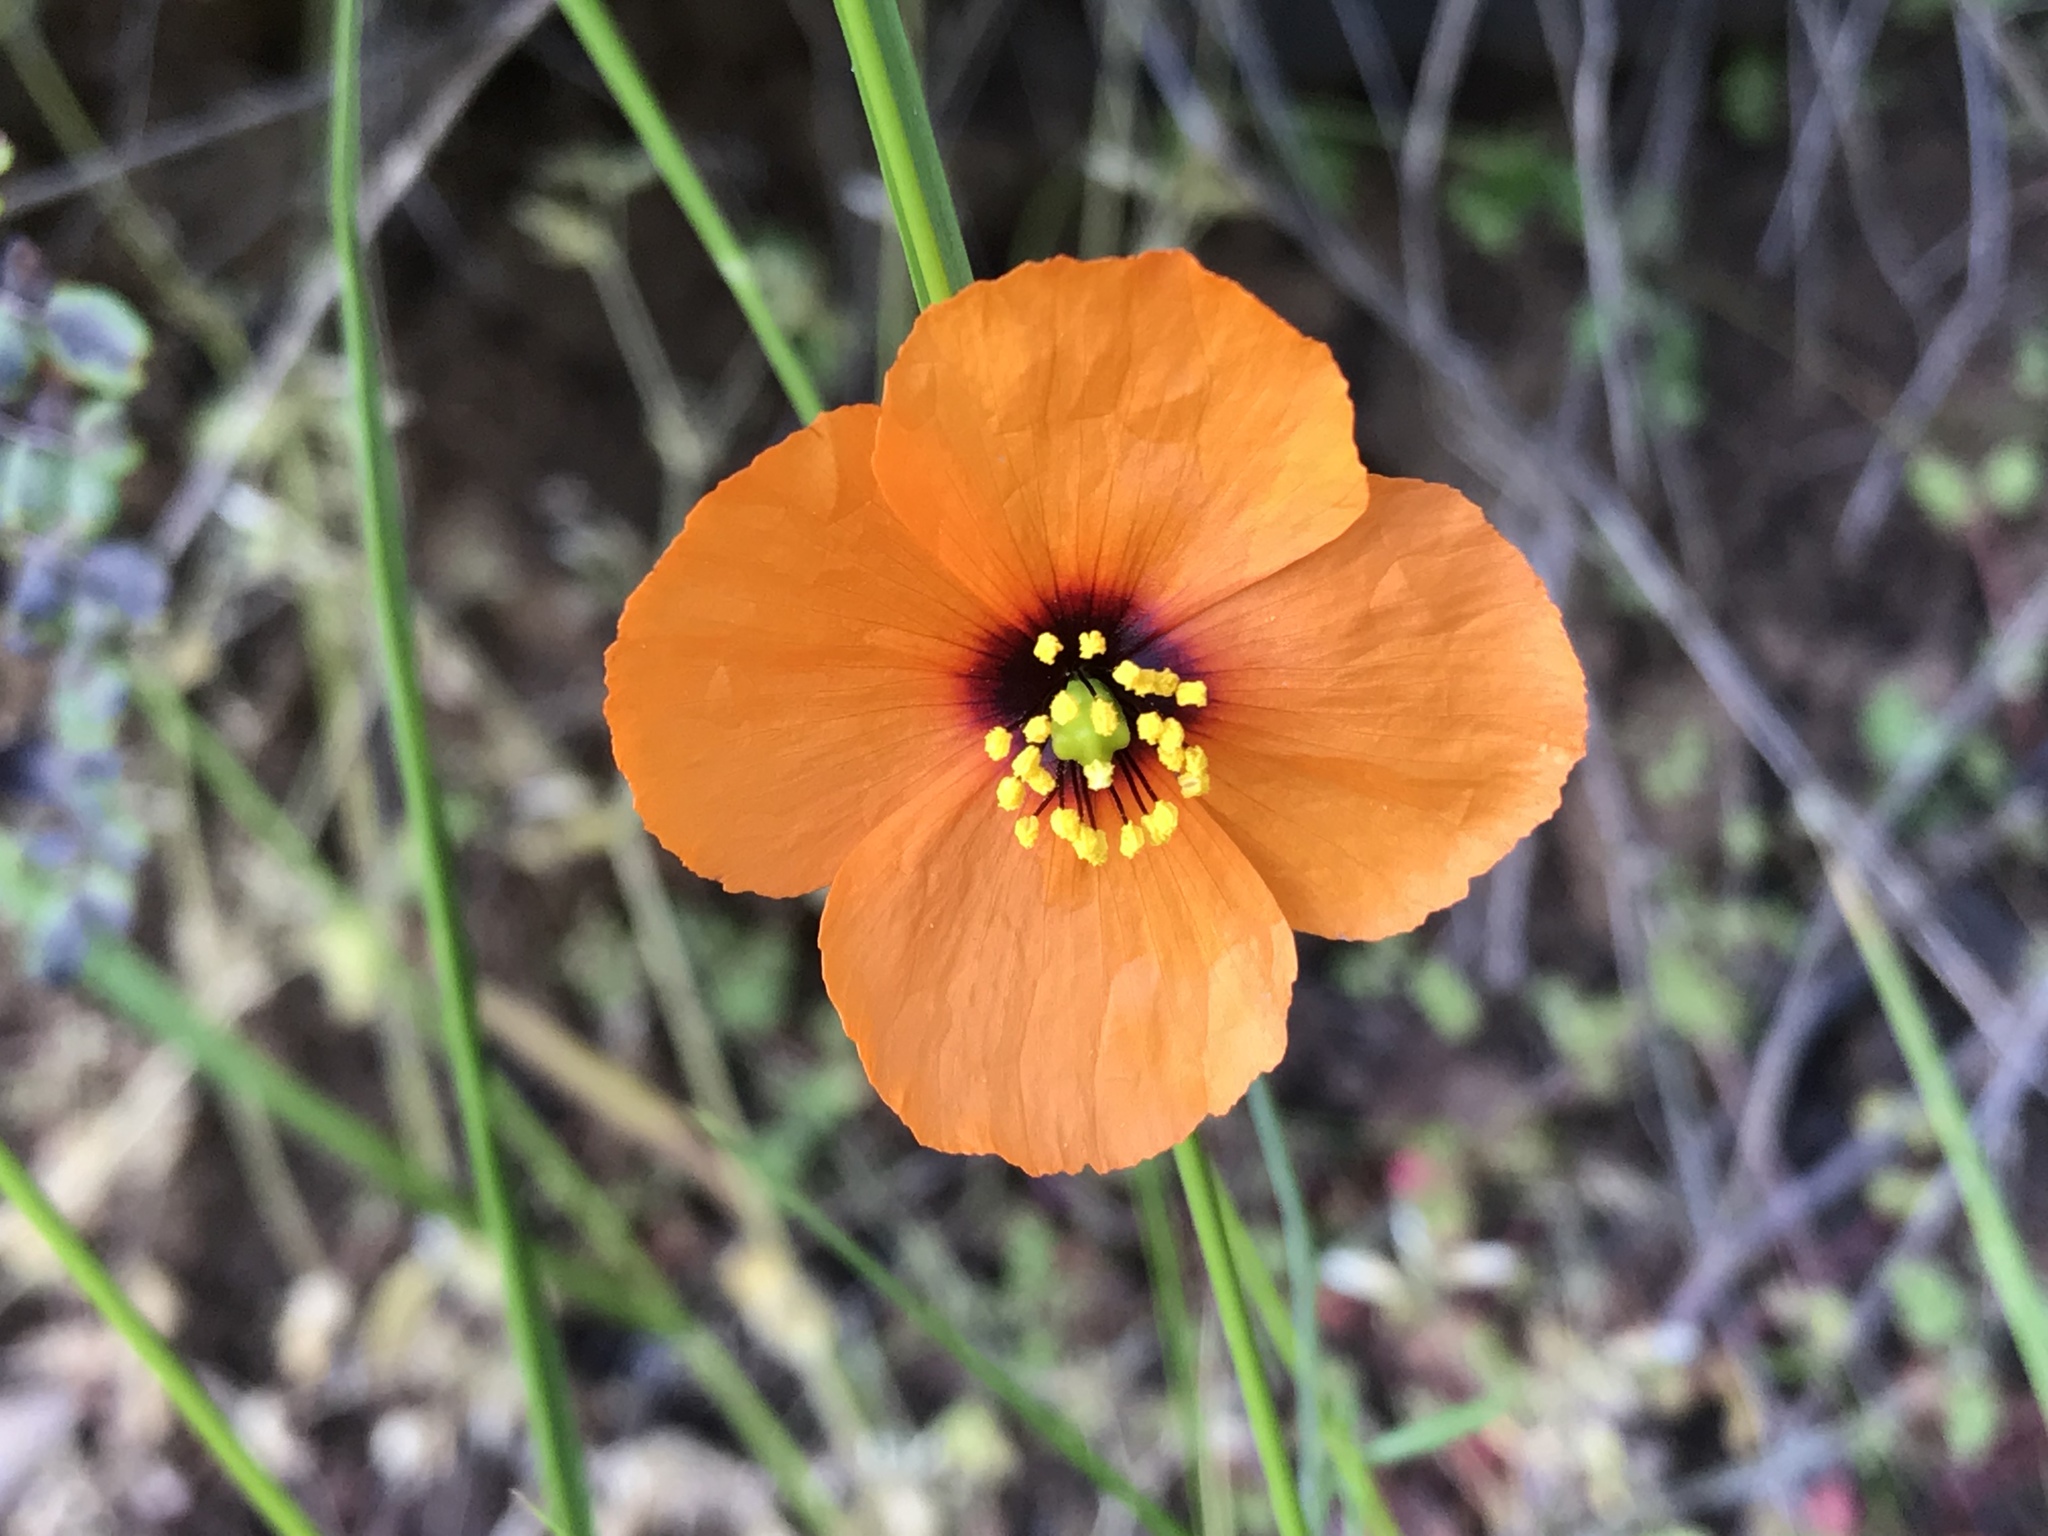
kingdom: Plantae
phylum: Tracheophyta
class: Magnoliopsida
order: Ranunculales
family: Papaveraceae
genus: Stylomecon
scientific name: Stylomecon heterophylla
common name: Flaming-poppy
